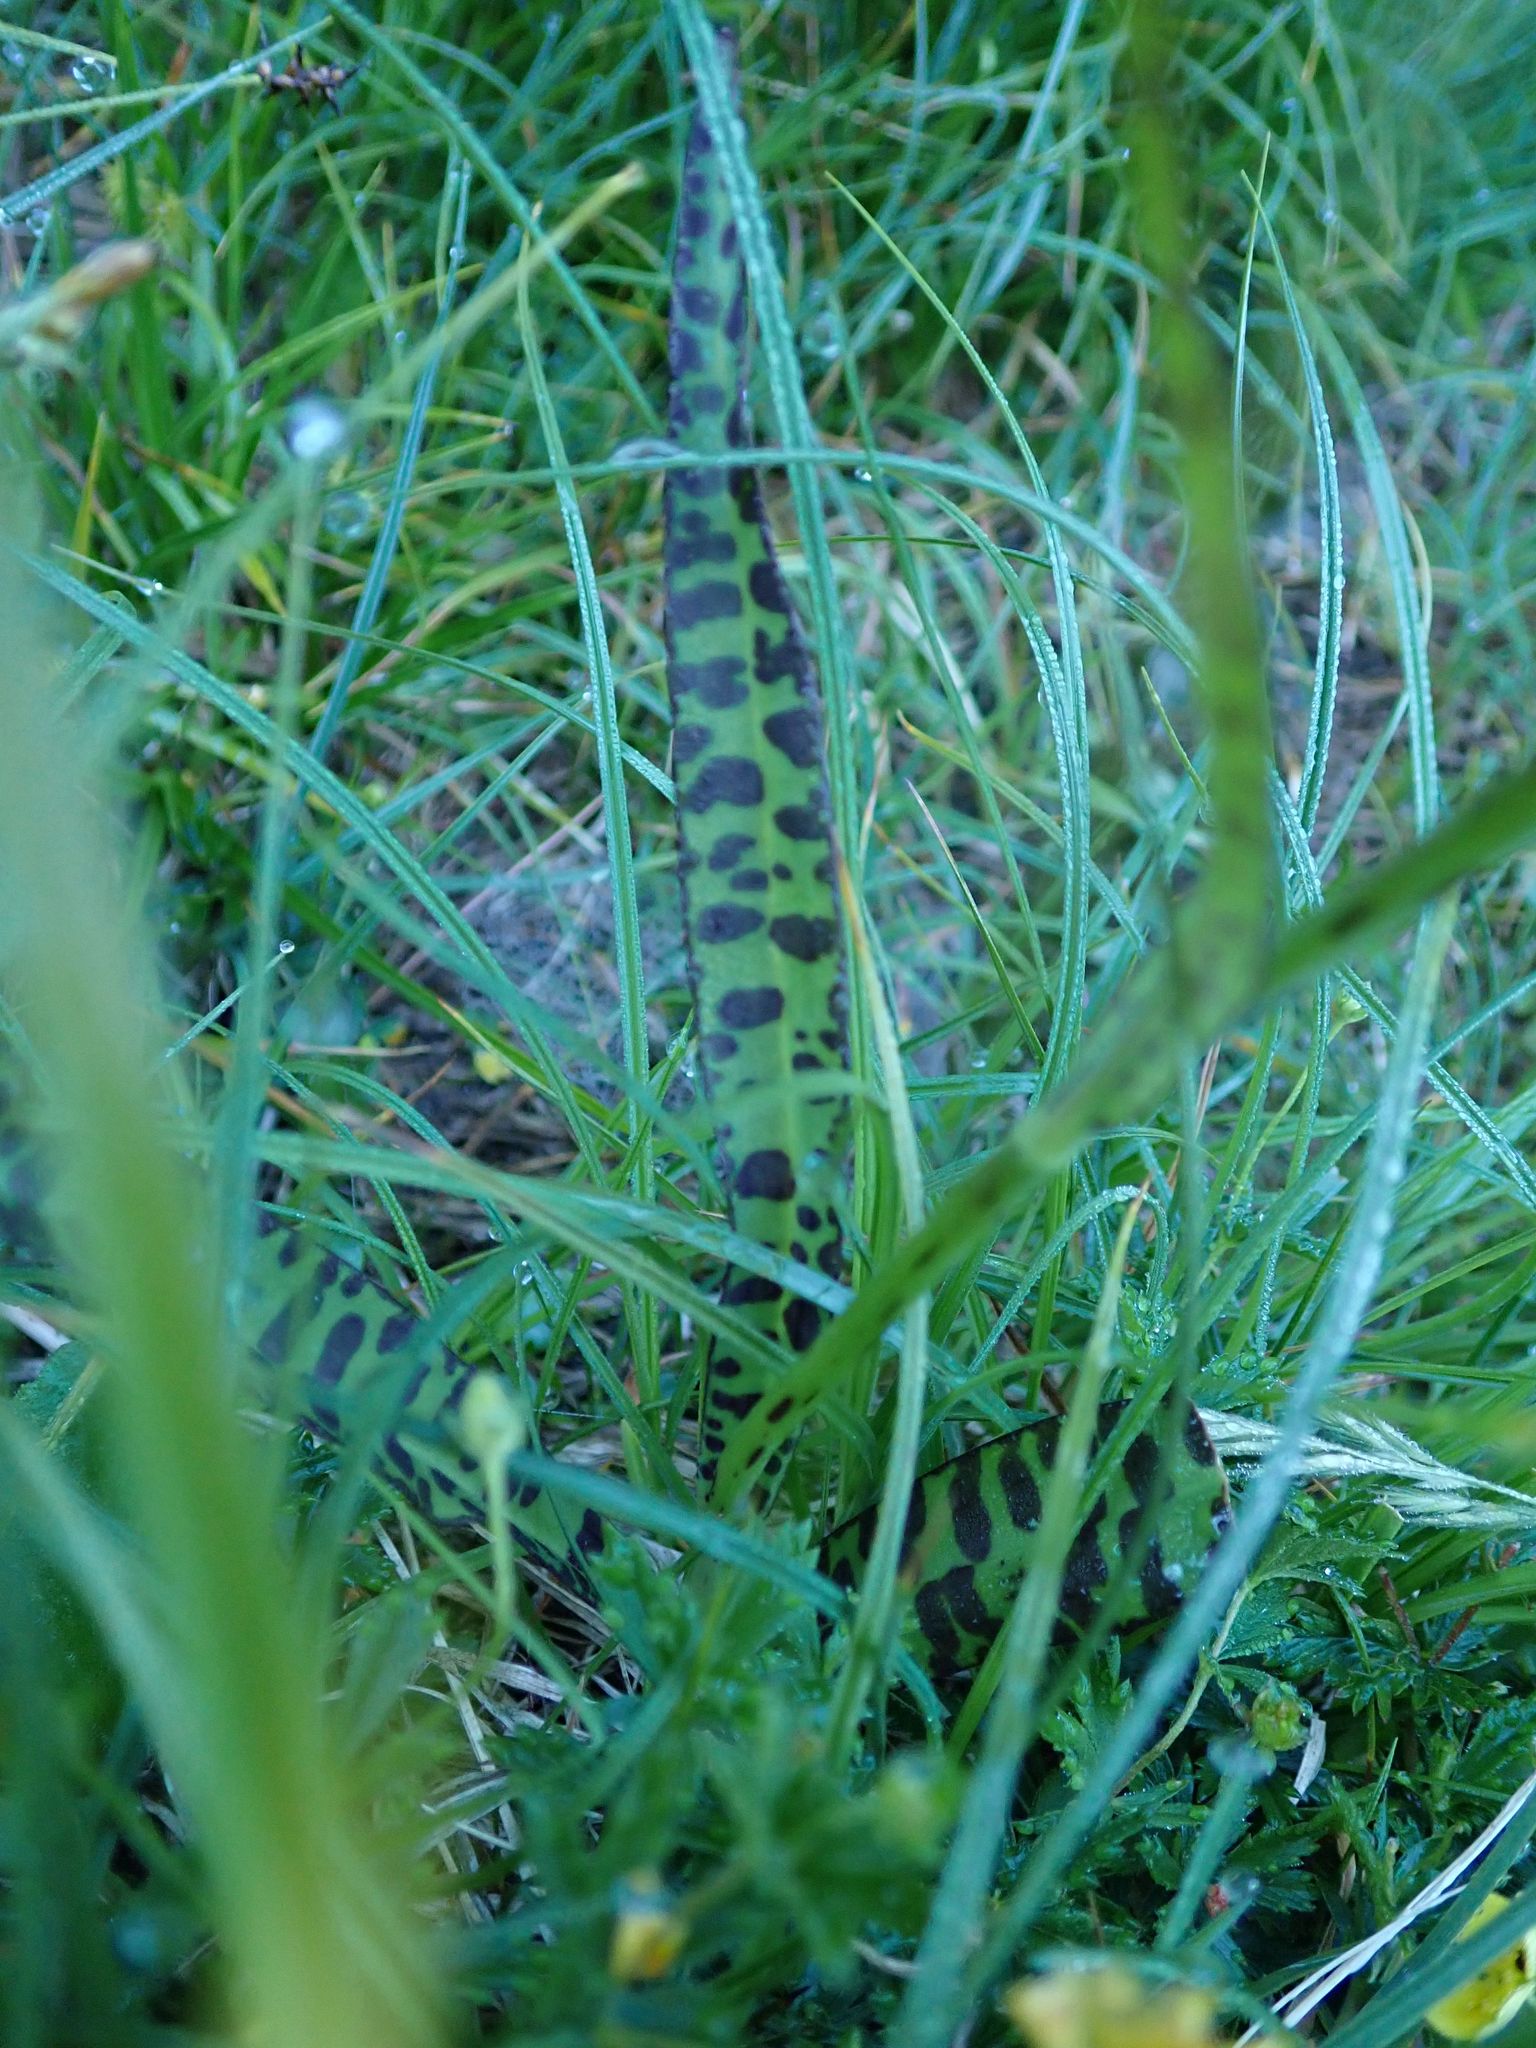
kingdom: Plantae
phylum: Tracheophyta
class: Liliopsida
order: Asparagales
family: Orchidaceae
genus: Dactylorhiza
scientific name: Dactylorhiza majalis
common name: Marsh orchid
